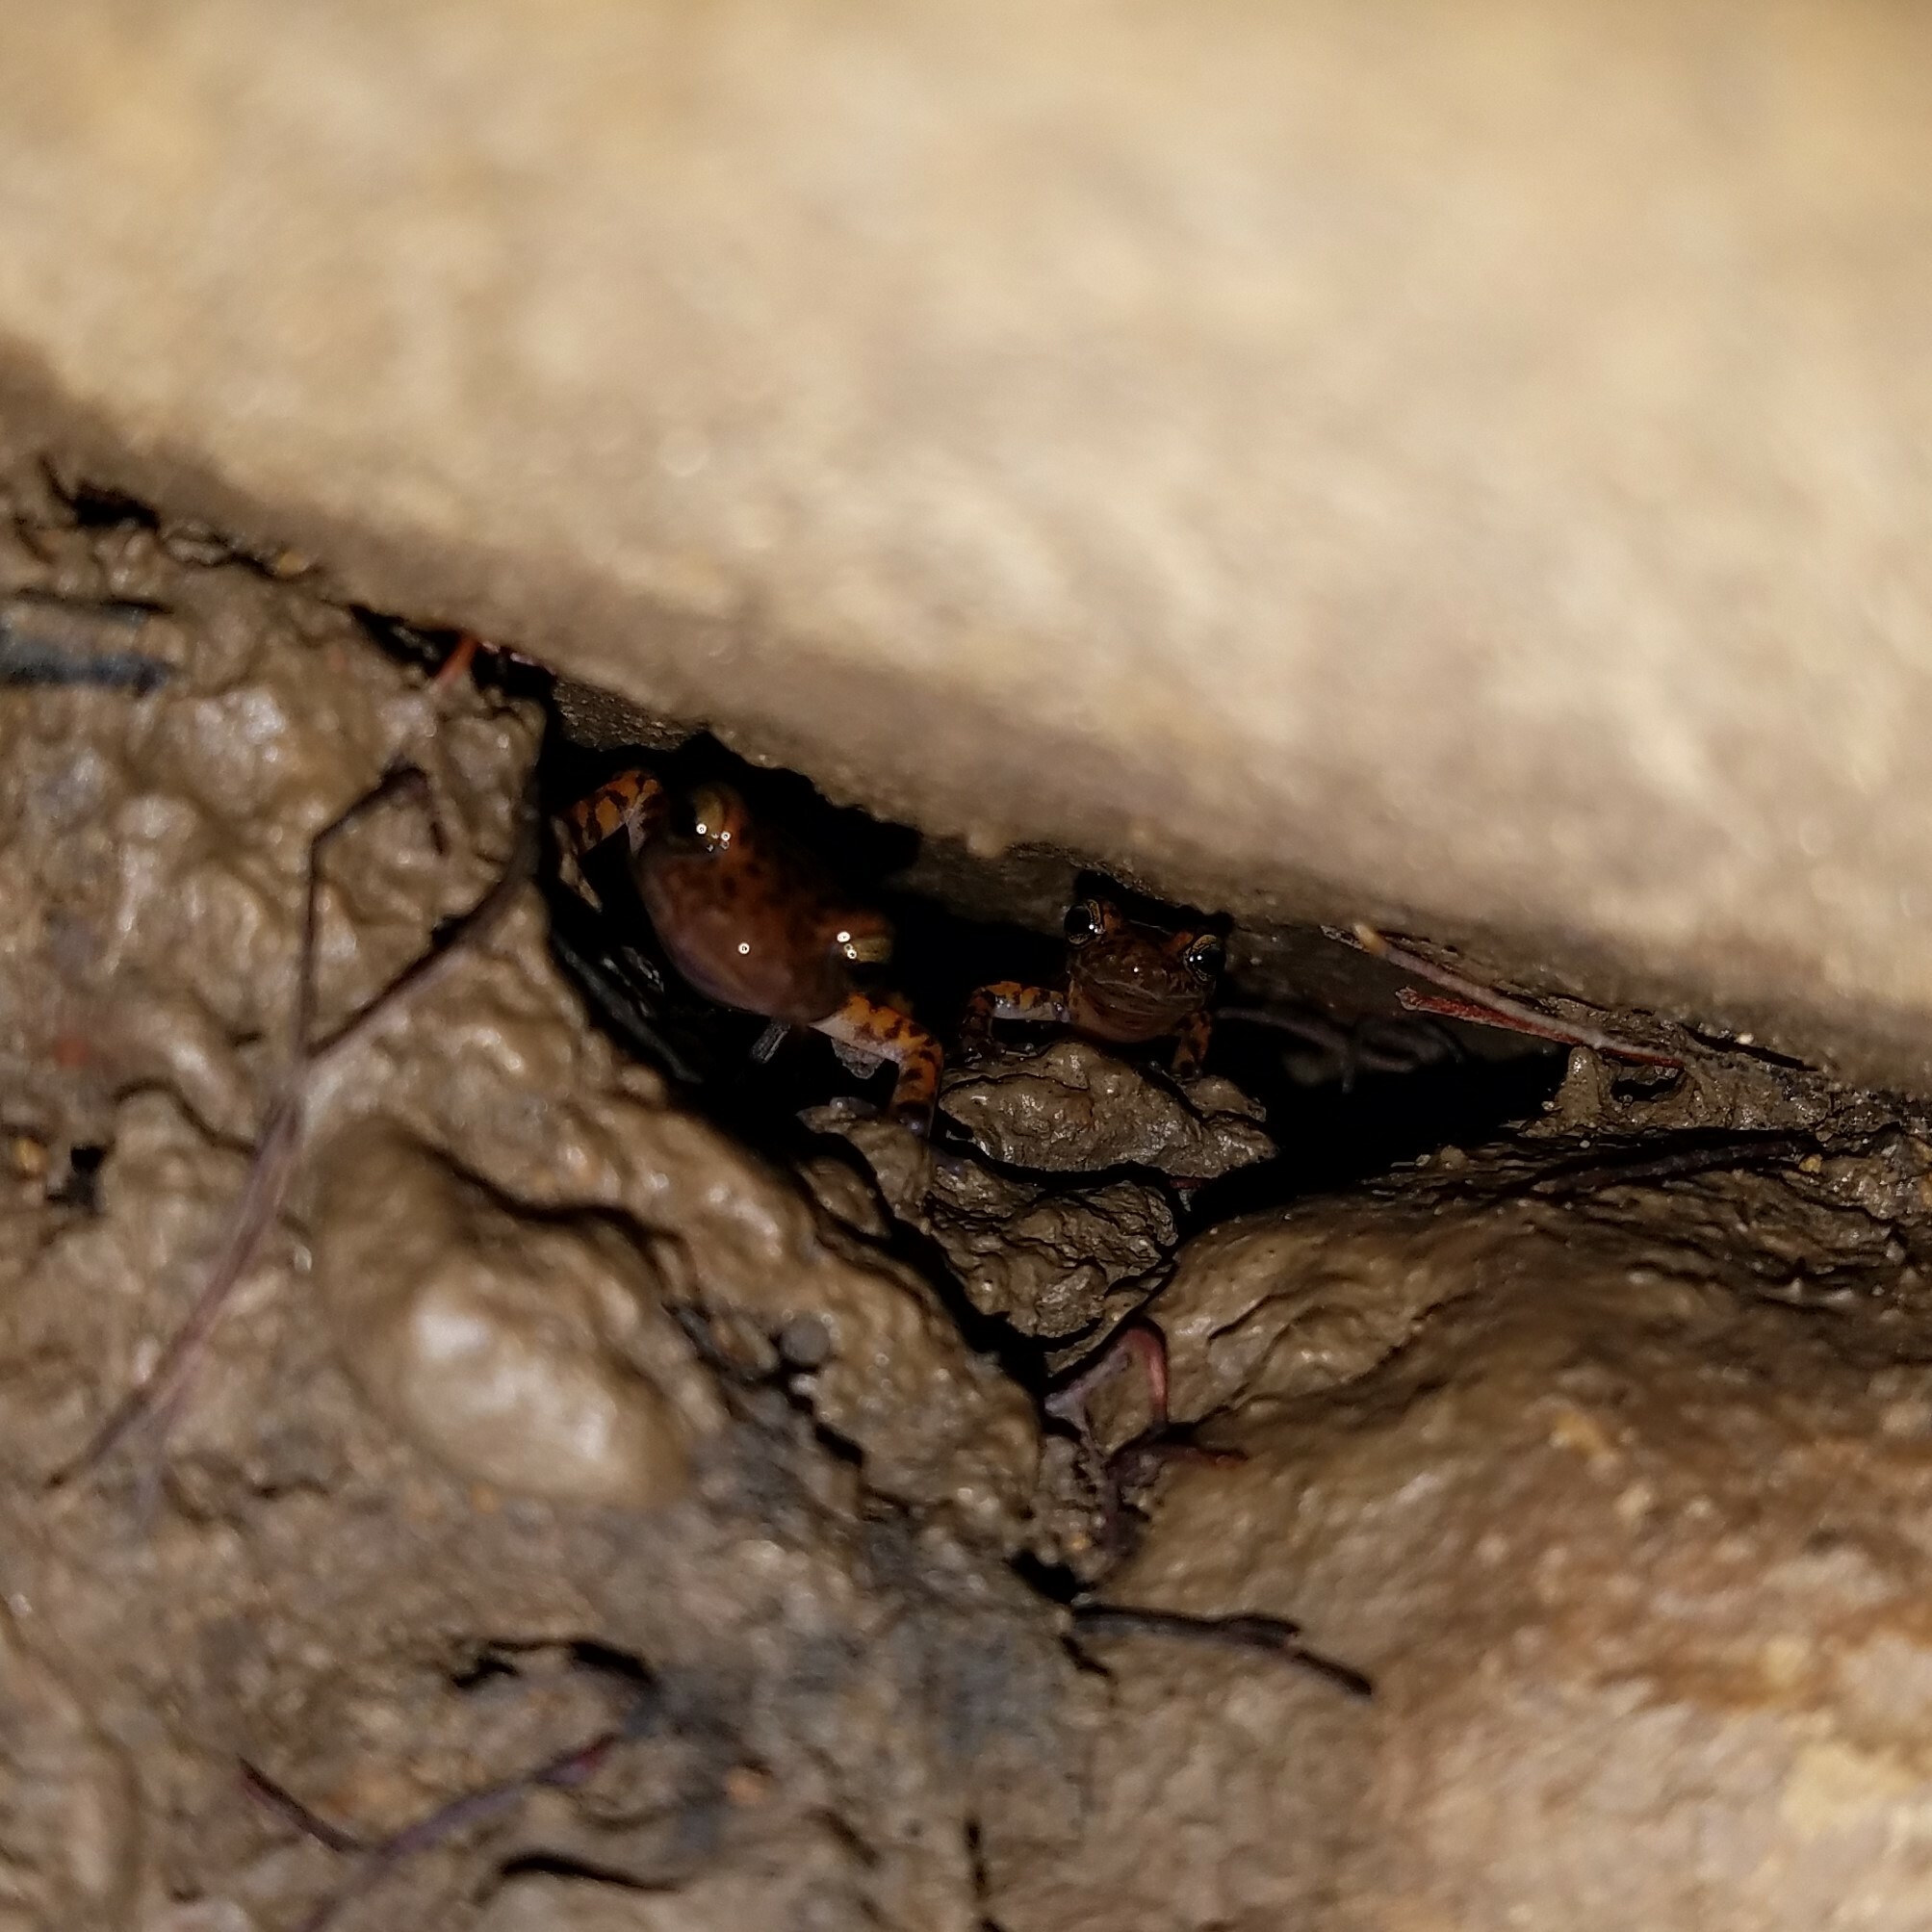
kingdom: Animalia
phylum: Chordata
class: Amphibia
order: Caudata
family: Plethodontidae
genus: Eurycea
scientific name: Eurycea lucifuga
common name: Cave salamander
